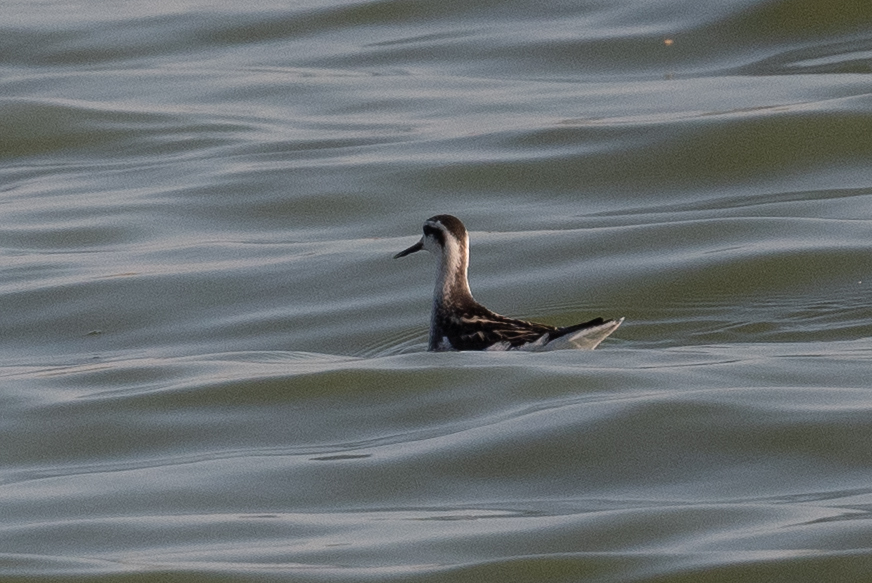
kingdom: Animalia
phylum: Chordata
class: Aves
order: Charadriiformes
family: Scolopacidae
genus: Phalaropus
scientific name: Phalaropus lobatus
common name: Red-necked phalarope
